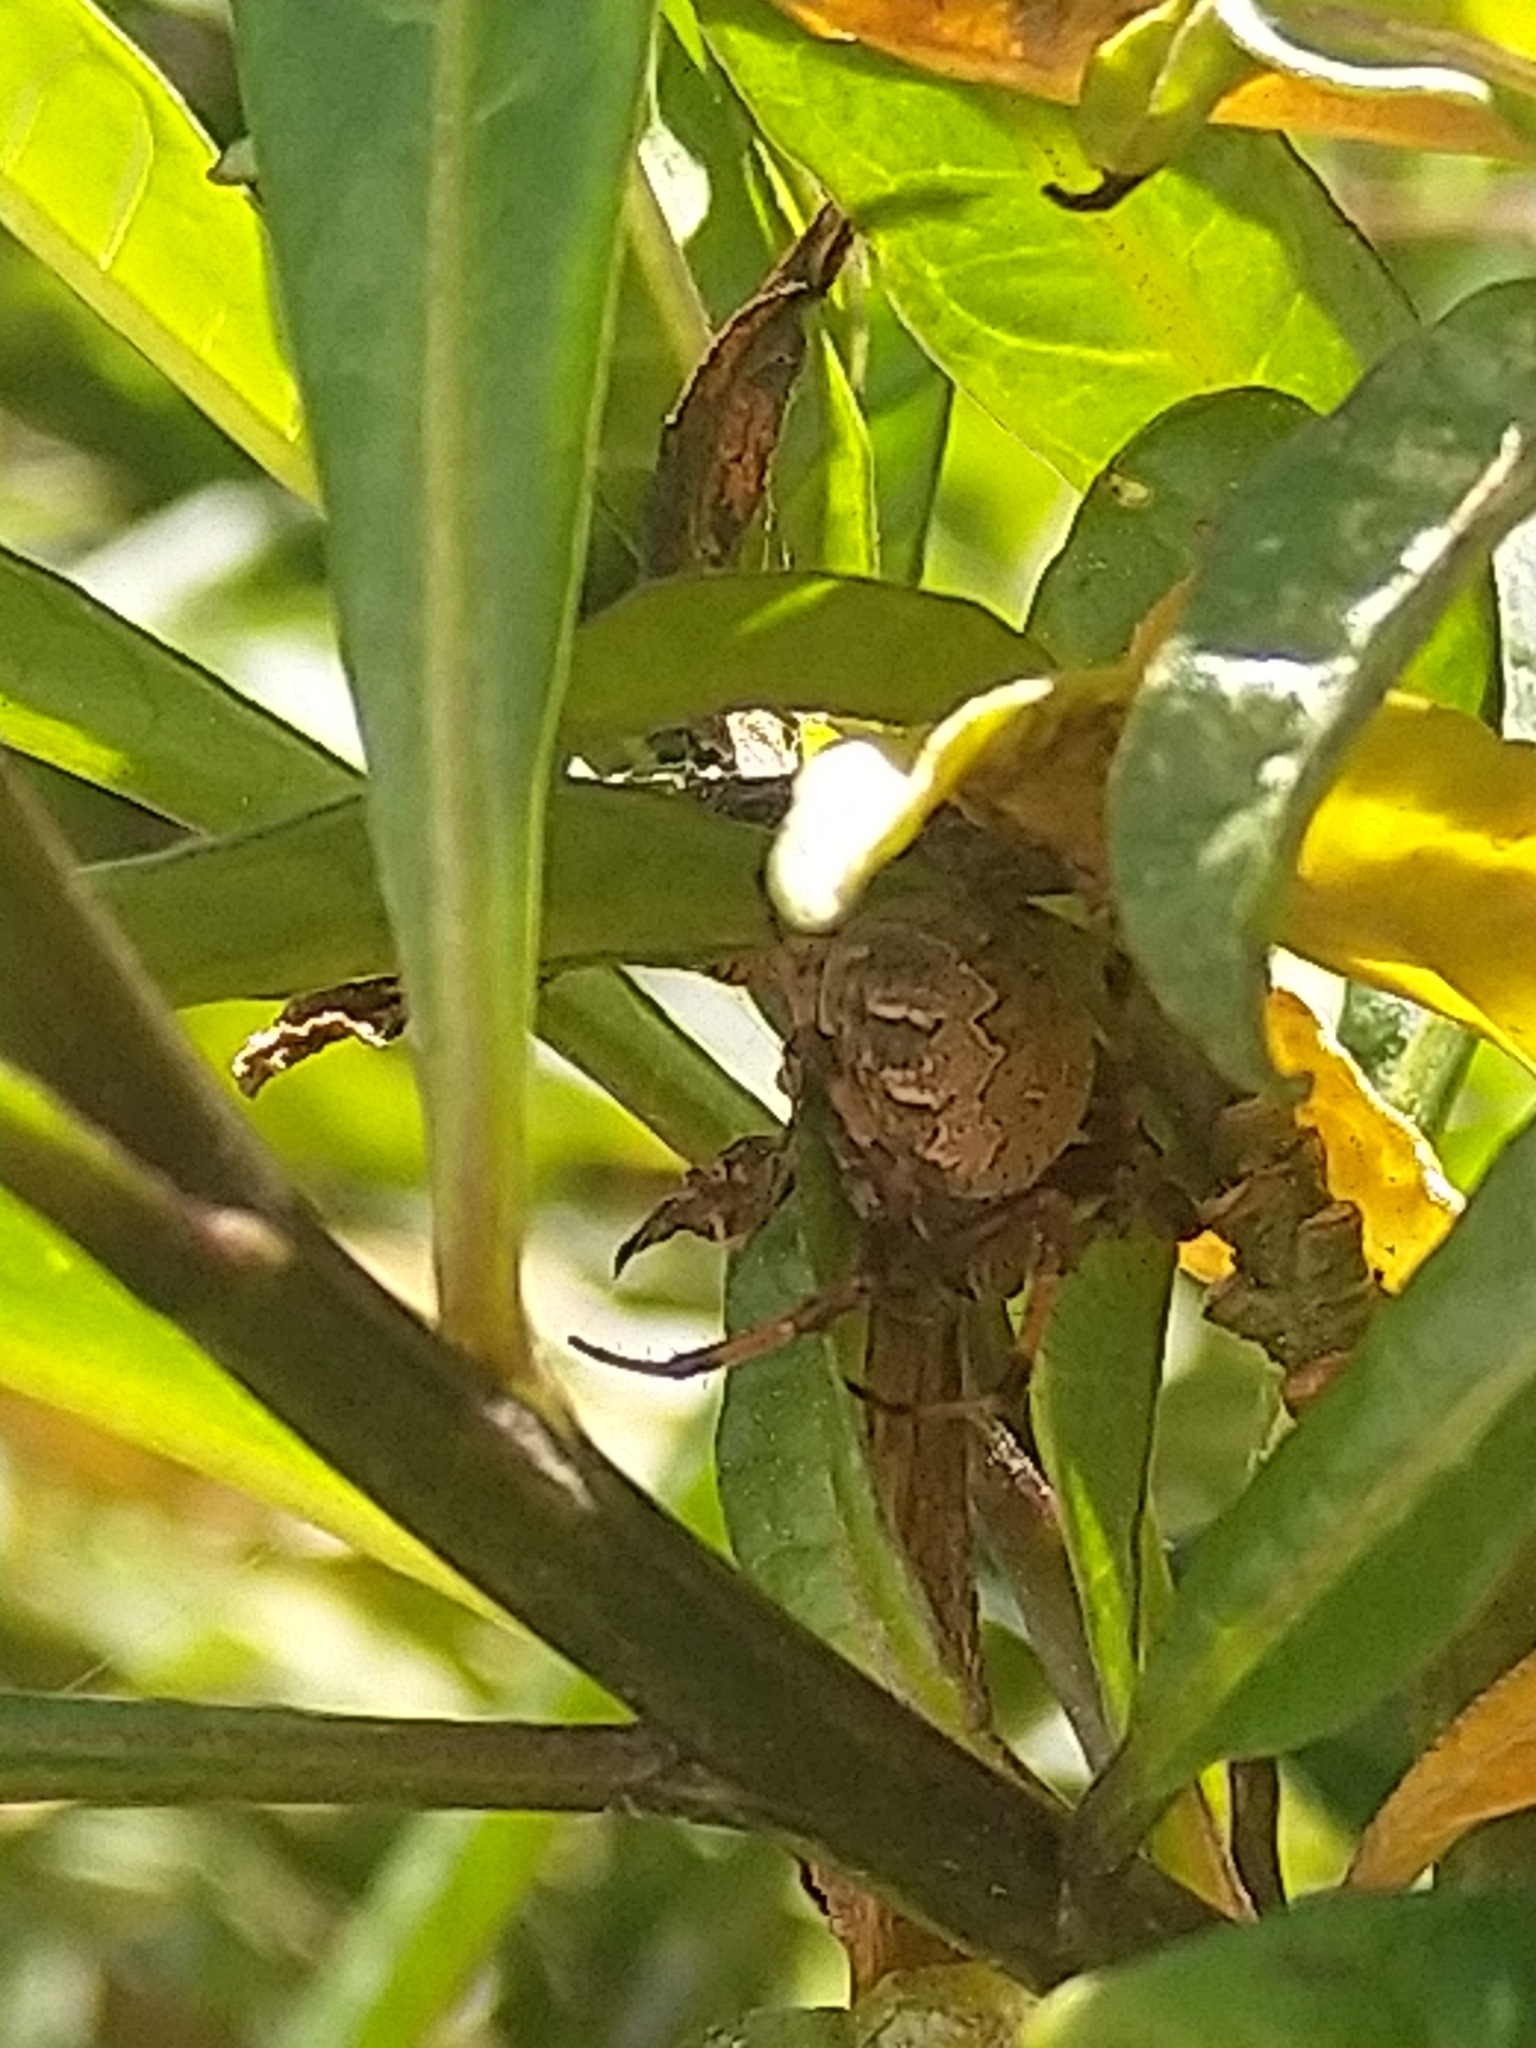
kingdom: Animalia
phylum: Arthropoda
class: Arachnida
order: Araneae
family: Araneidae
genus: Salsa
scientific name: Salsa fuliginata
